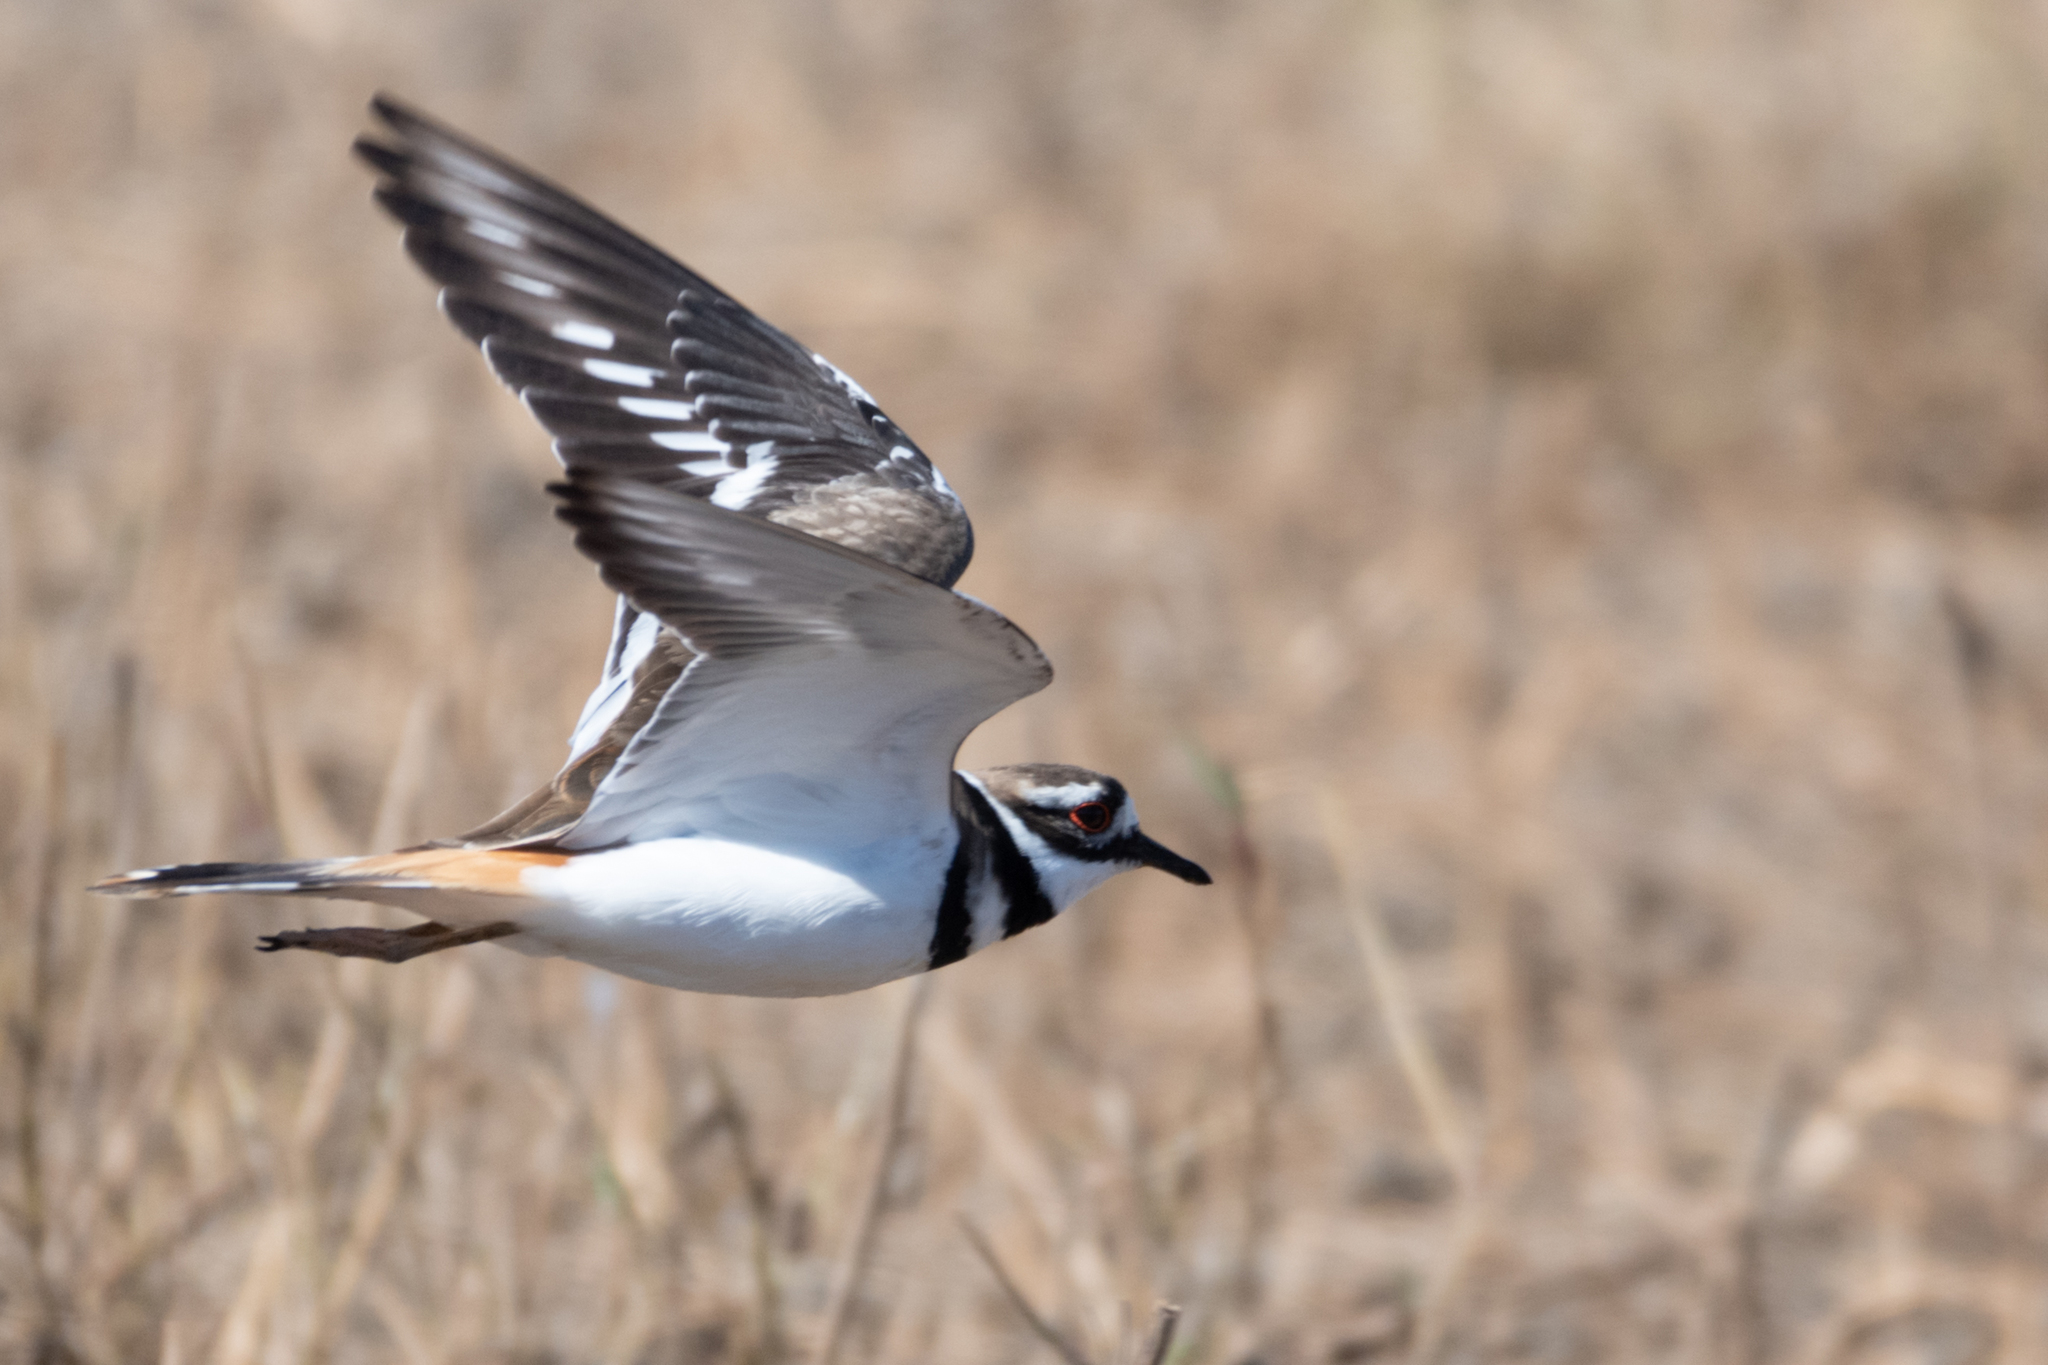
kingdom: Animalia
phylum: Chordata
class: Aves
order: Charadriiformes
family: Charadriidae
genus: Charadrius
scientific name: Charadrius vociferus
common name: Killdeer
